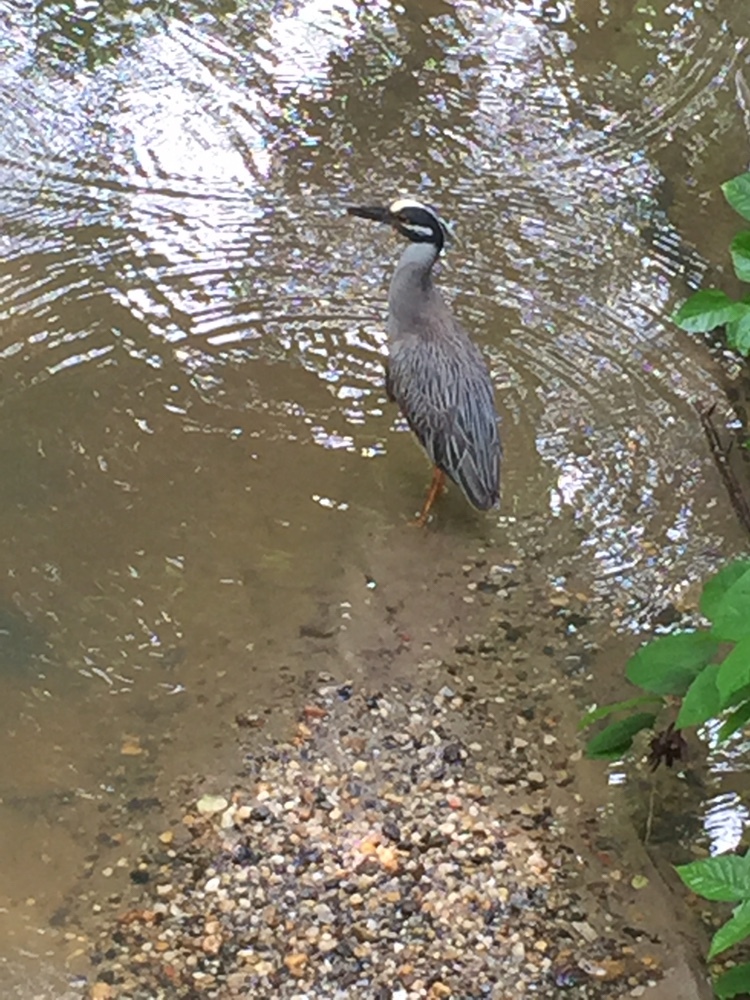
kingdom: Animalia
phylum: Chordata
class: Aves
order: Pelecaniformes
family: Ardeidae
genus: Nyctanassa
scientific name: Nyctanassa violacea
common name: Yellow-crowned night heron
